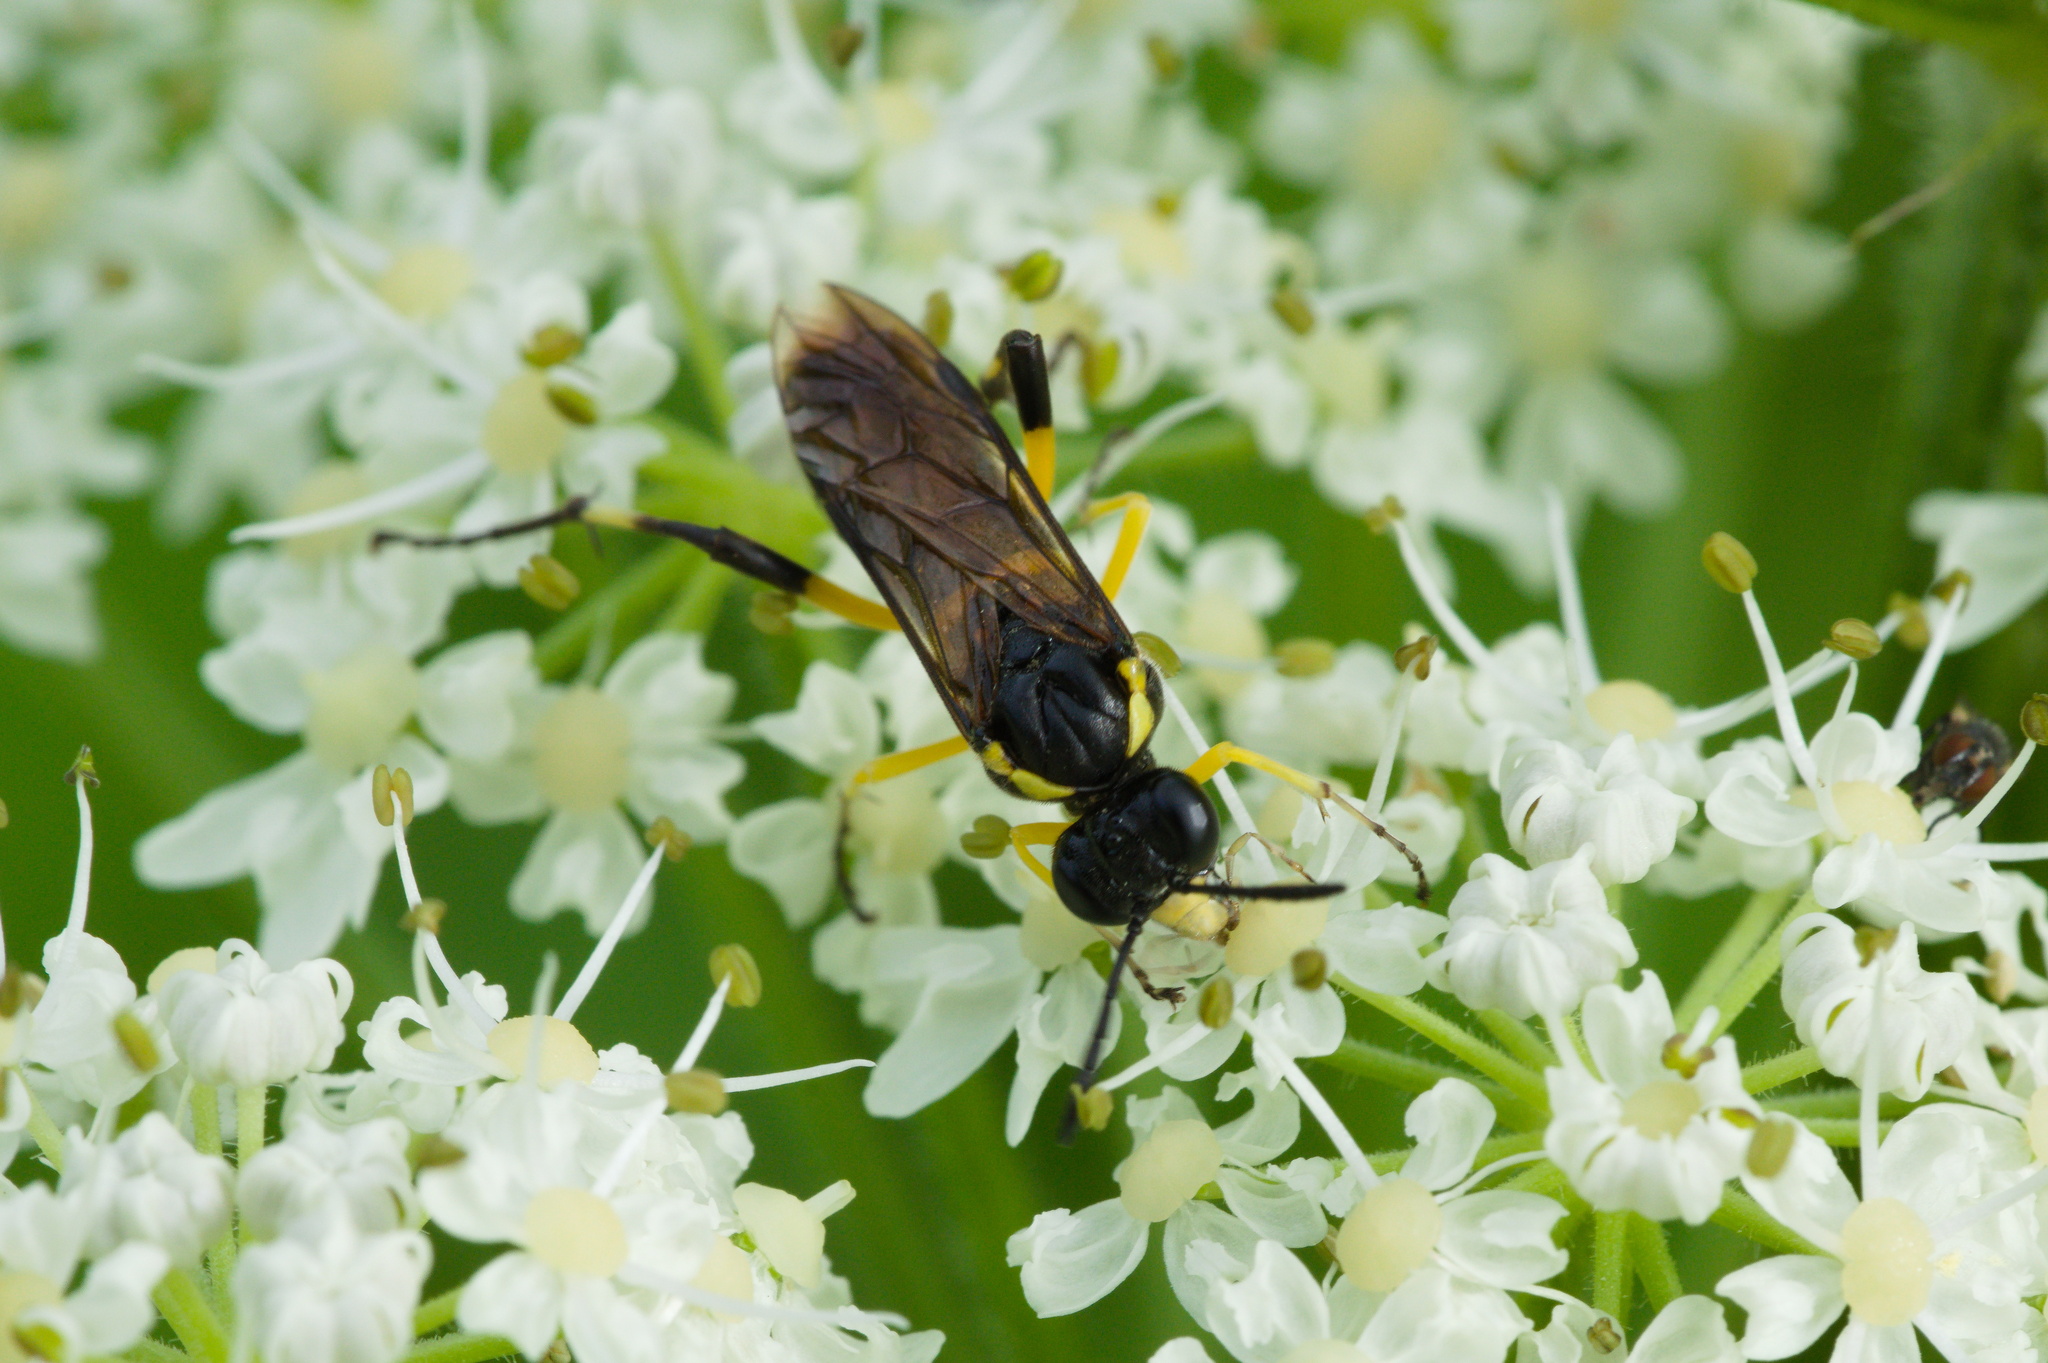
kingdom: Animalia
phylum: Arthropoda
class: Insecta
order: Hymenoptera
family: Tenthredinidae
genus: Macrophya
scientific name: Macrophya montana
